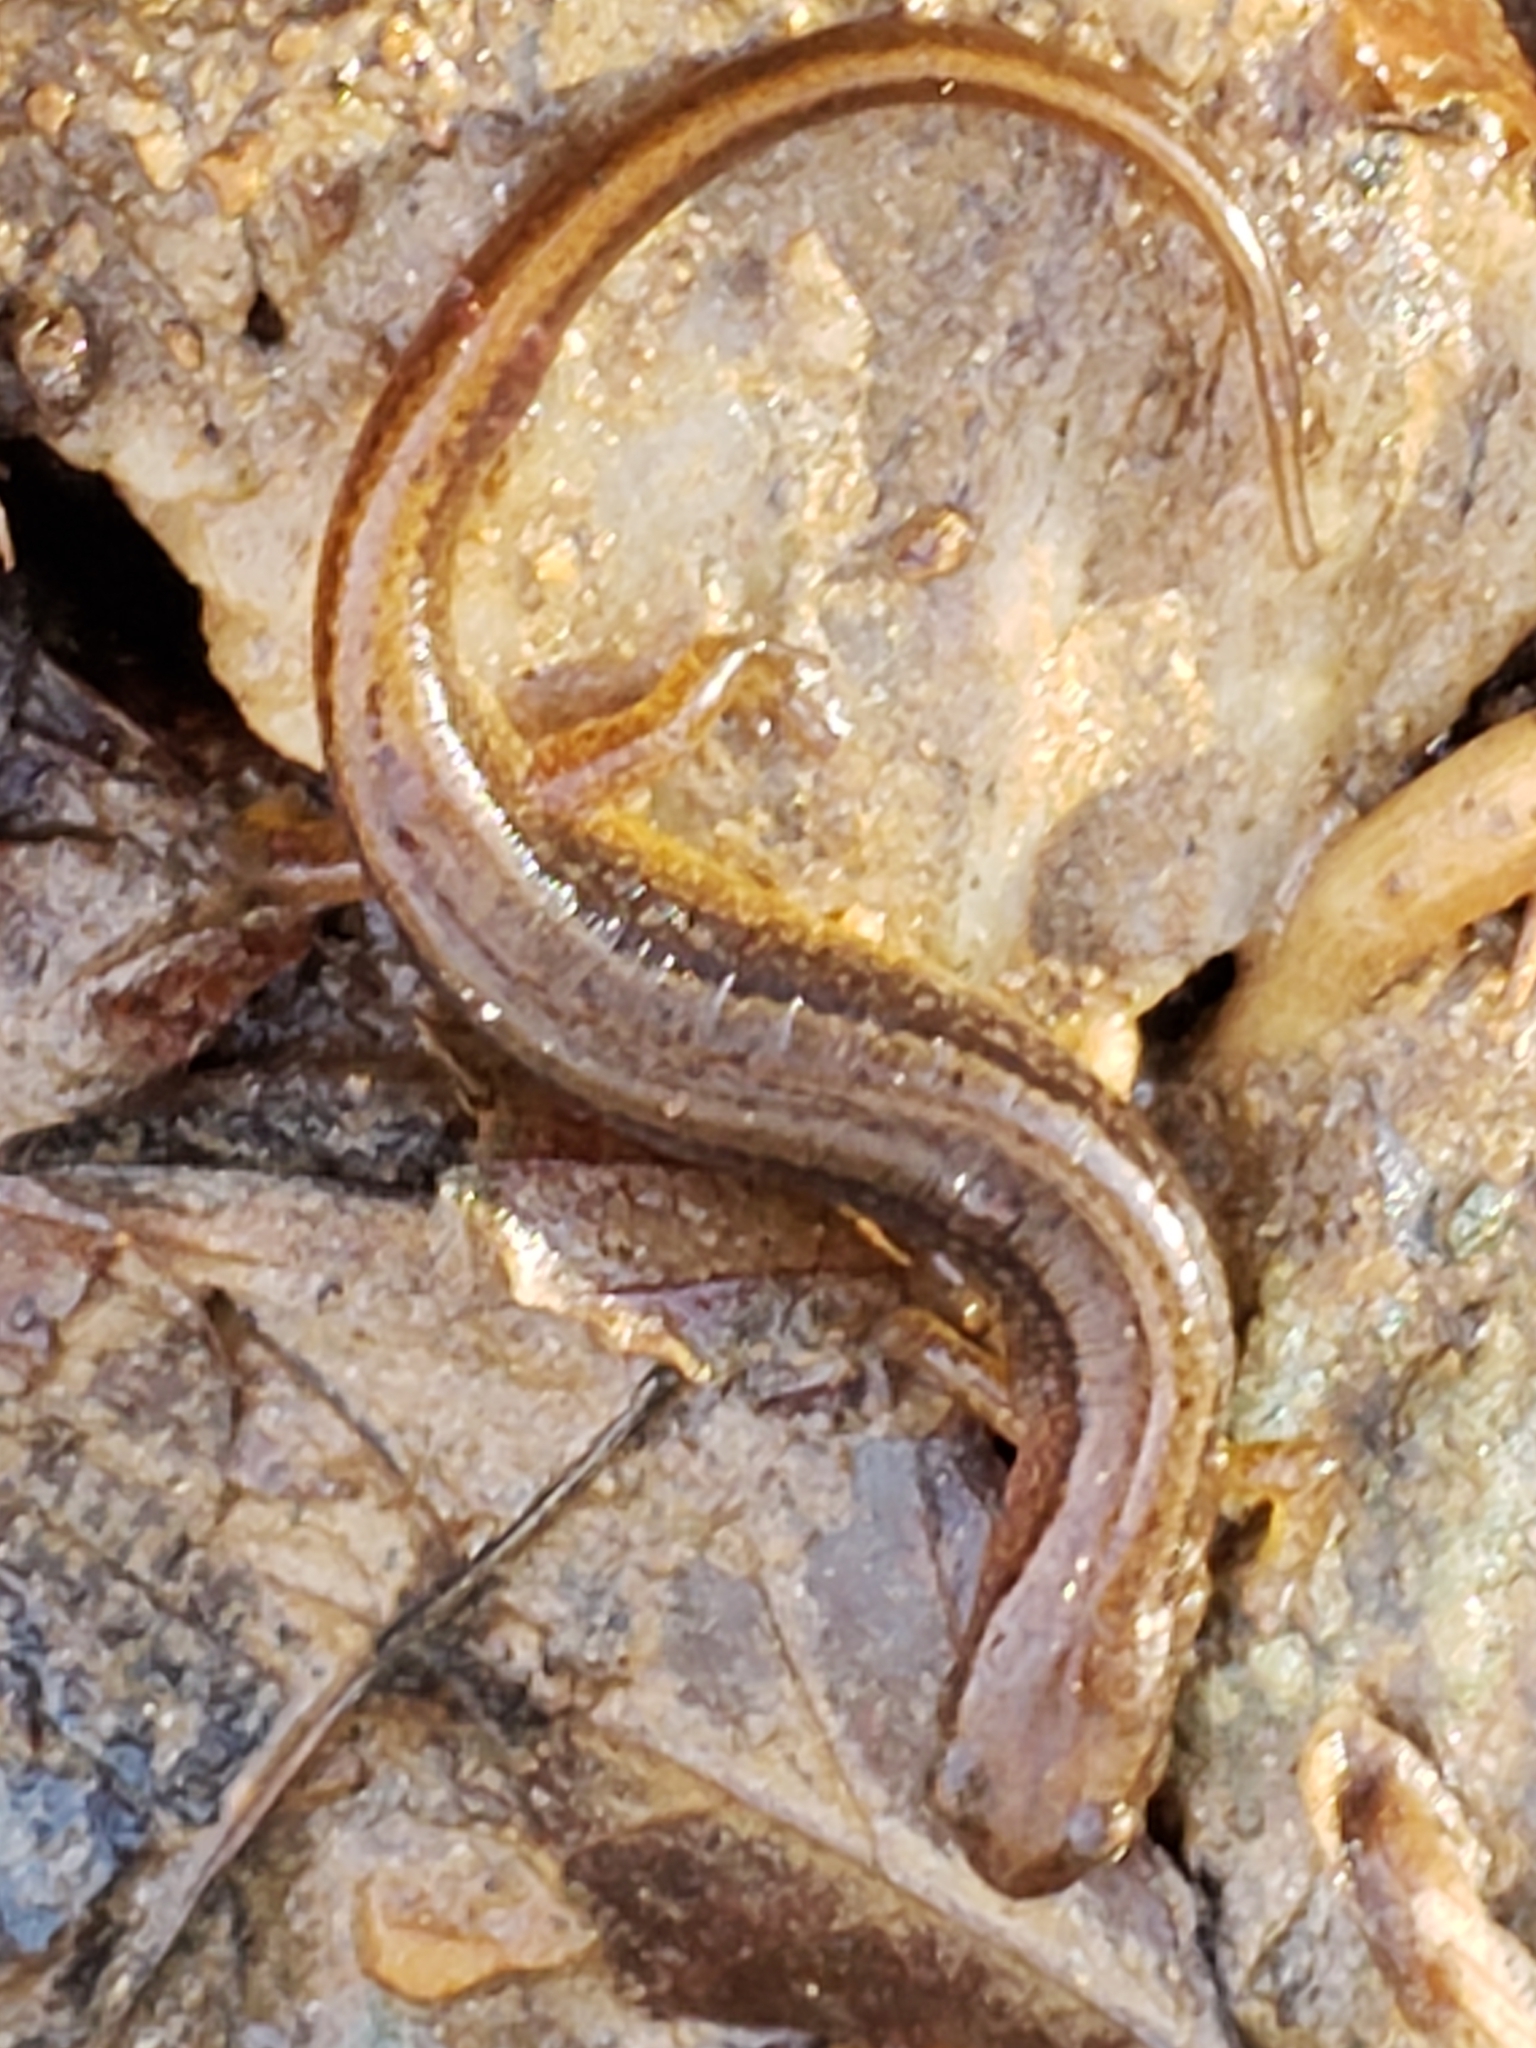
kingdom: Animalia
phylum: Chordata
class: Amphibia
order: Caudata
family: Plethodontidae
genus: Eurycea
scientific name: Eurycea bislineata
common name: Northern two-lined salamander
